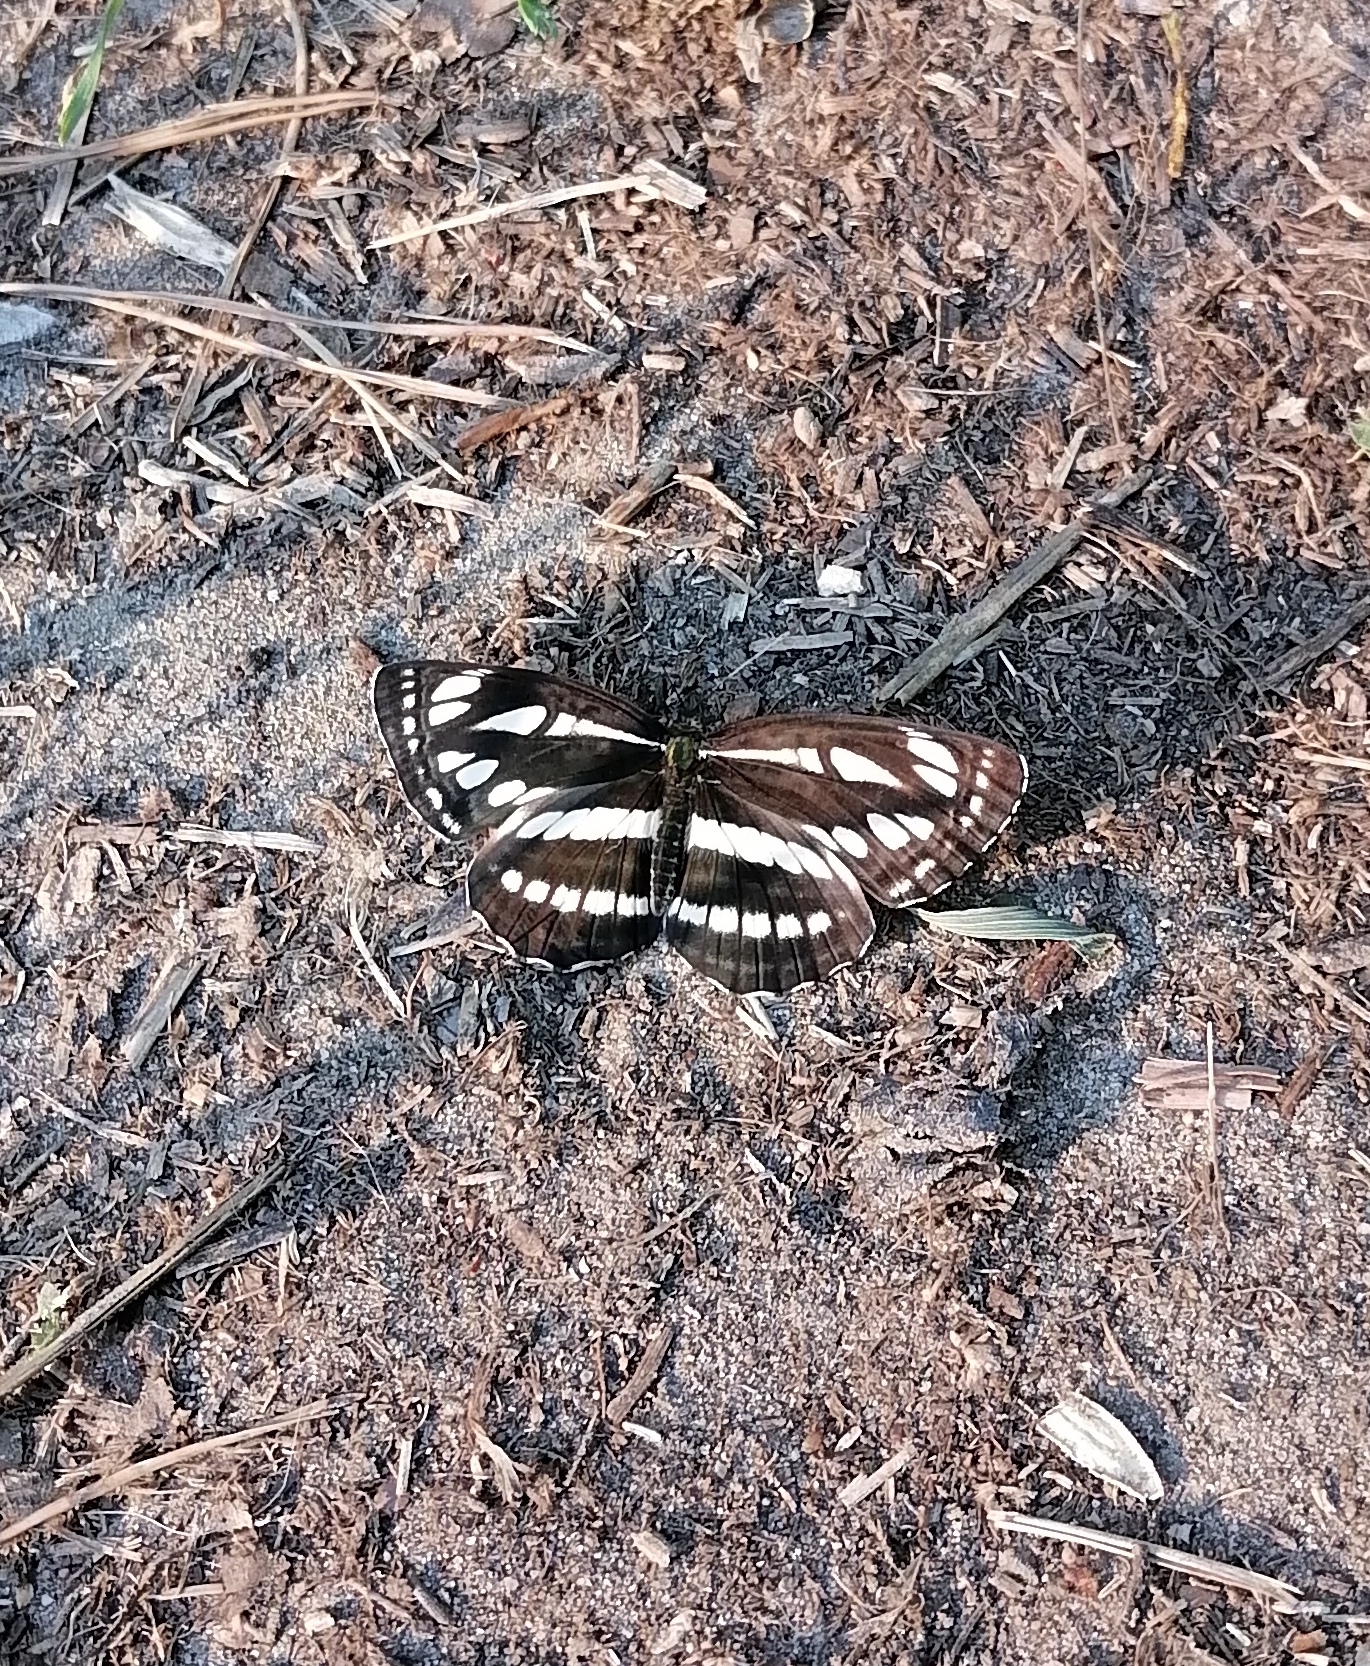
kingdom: Animalia
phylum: Arthropoda
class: Insecta
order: Lepidoptera
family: Nymphalidae
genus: Neptis
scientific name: Neptis sappho
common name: Common glider
